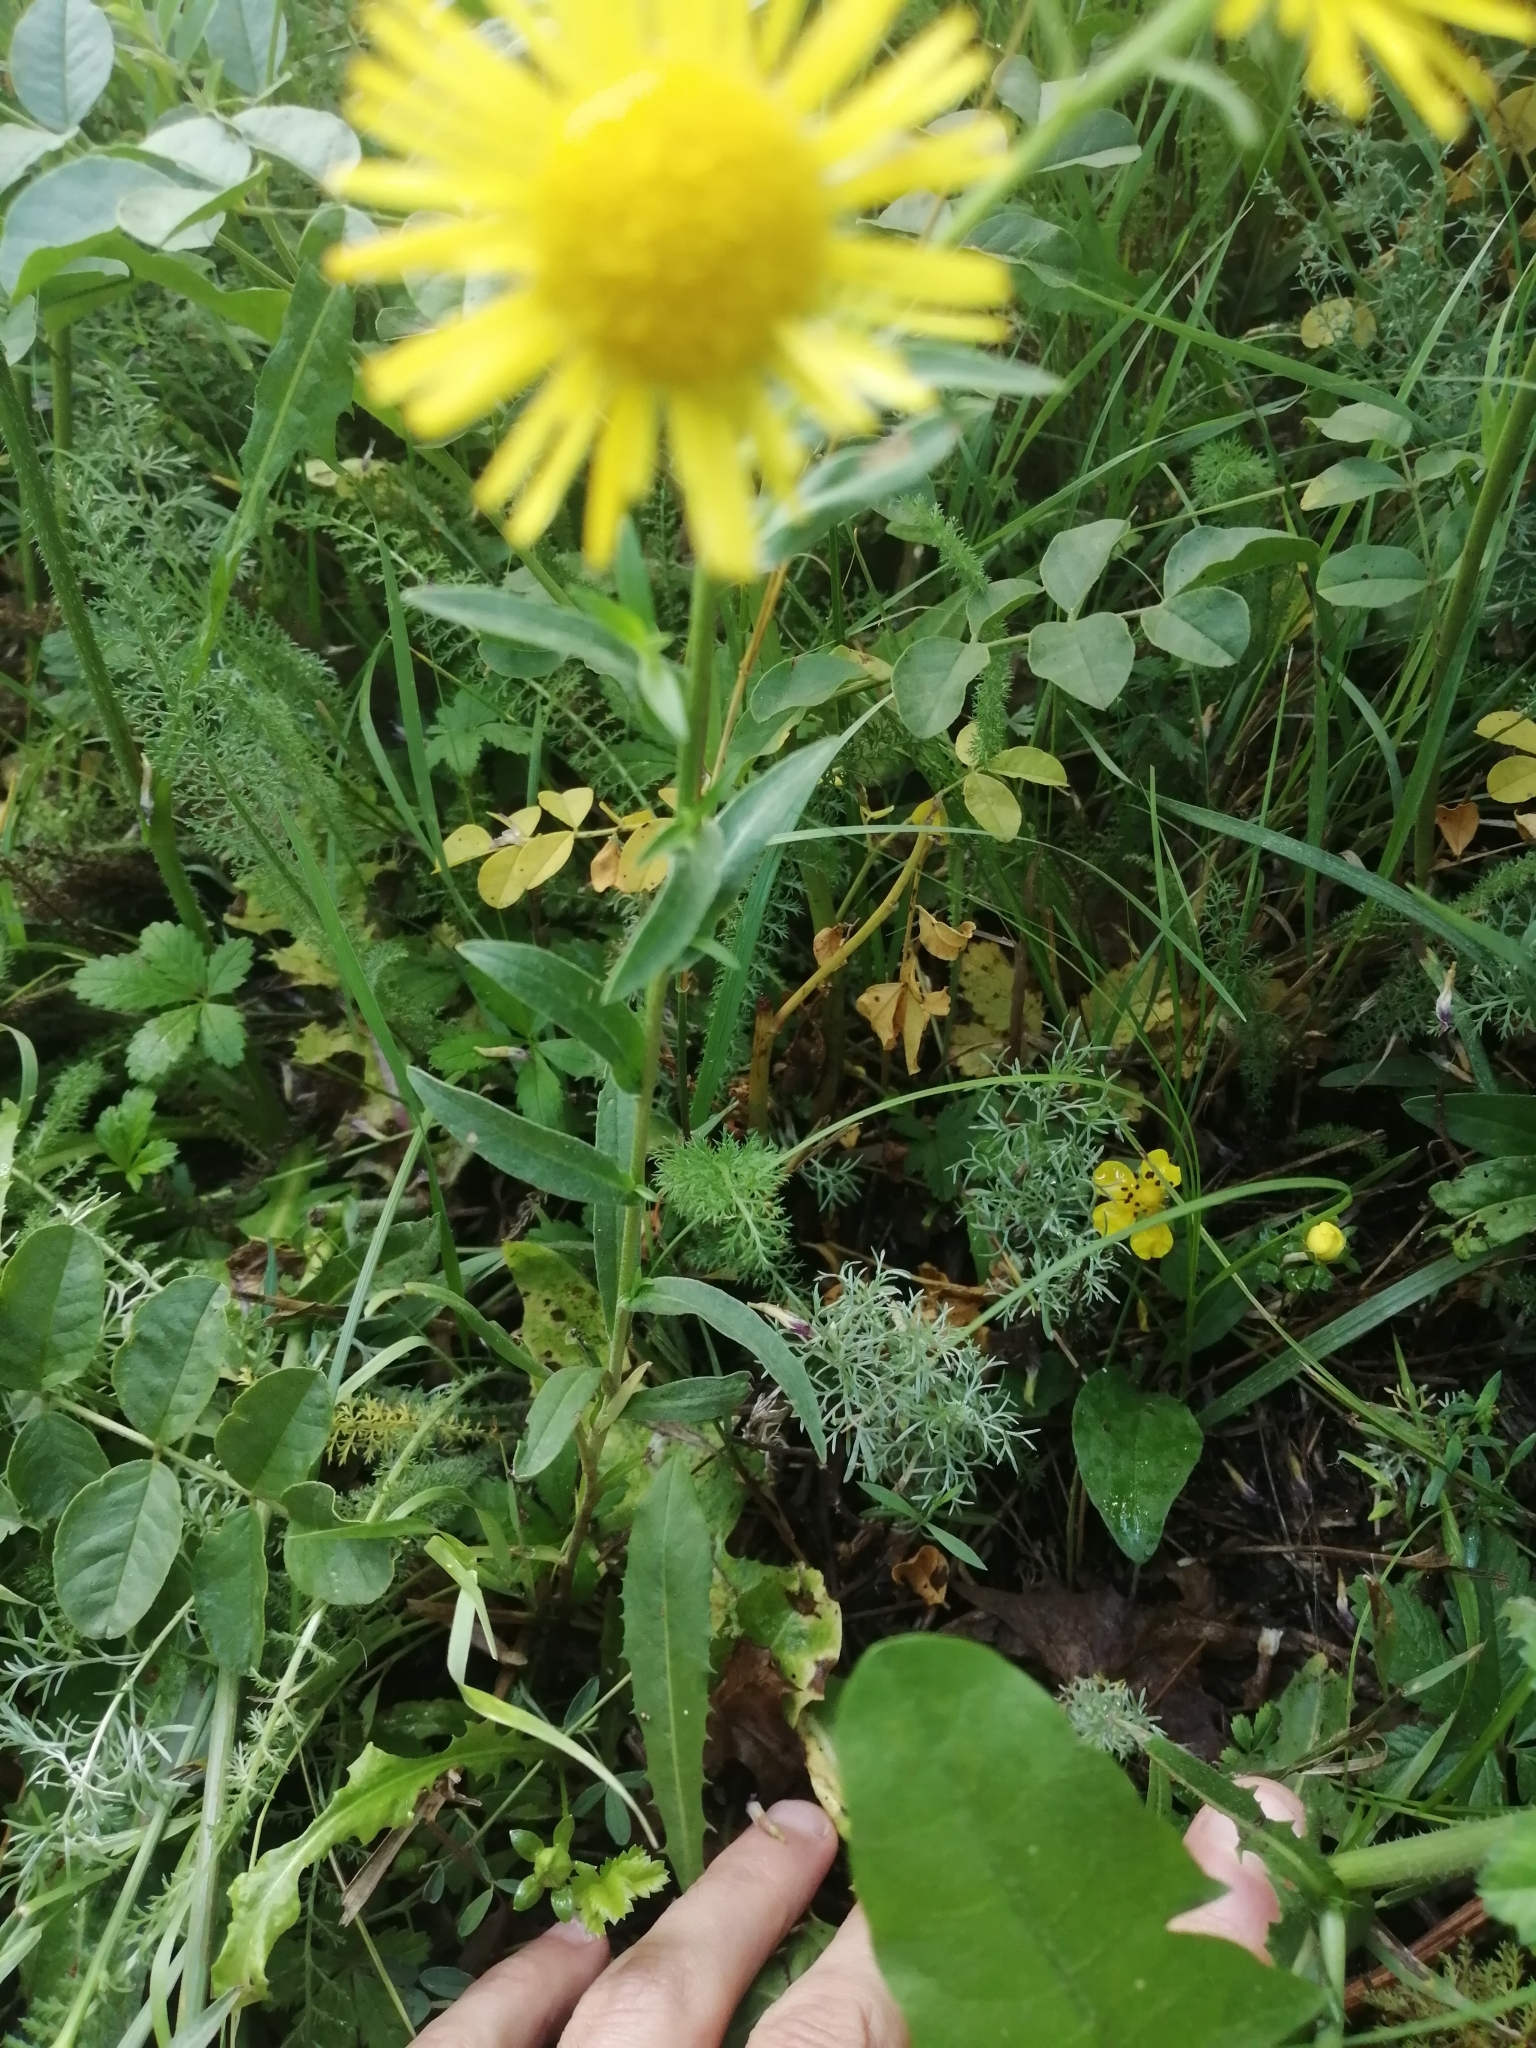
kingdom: Plantae
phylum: Tracheophyta
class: Magnoliopsida
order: Asterales
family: Asteraceae
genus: Pentanema
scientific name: Pentanema britannicum
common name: British elecampane
